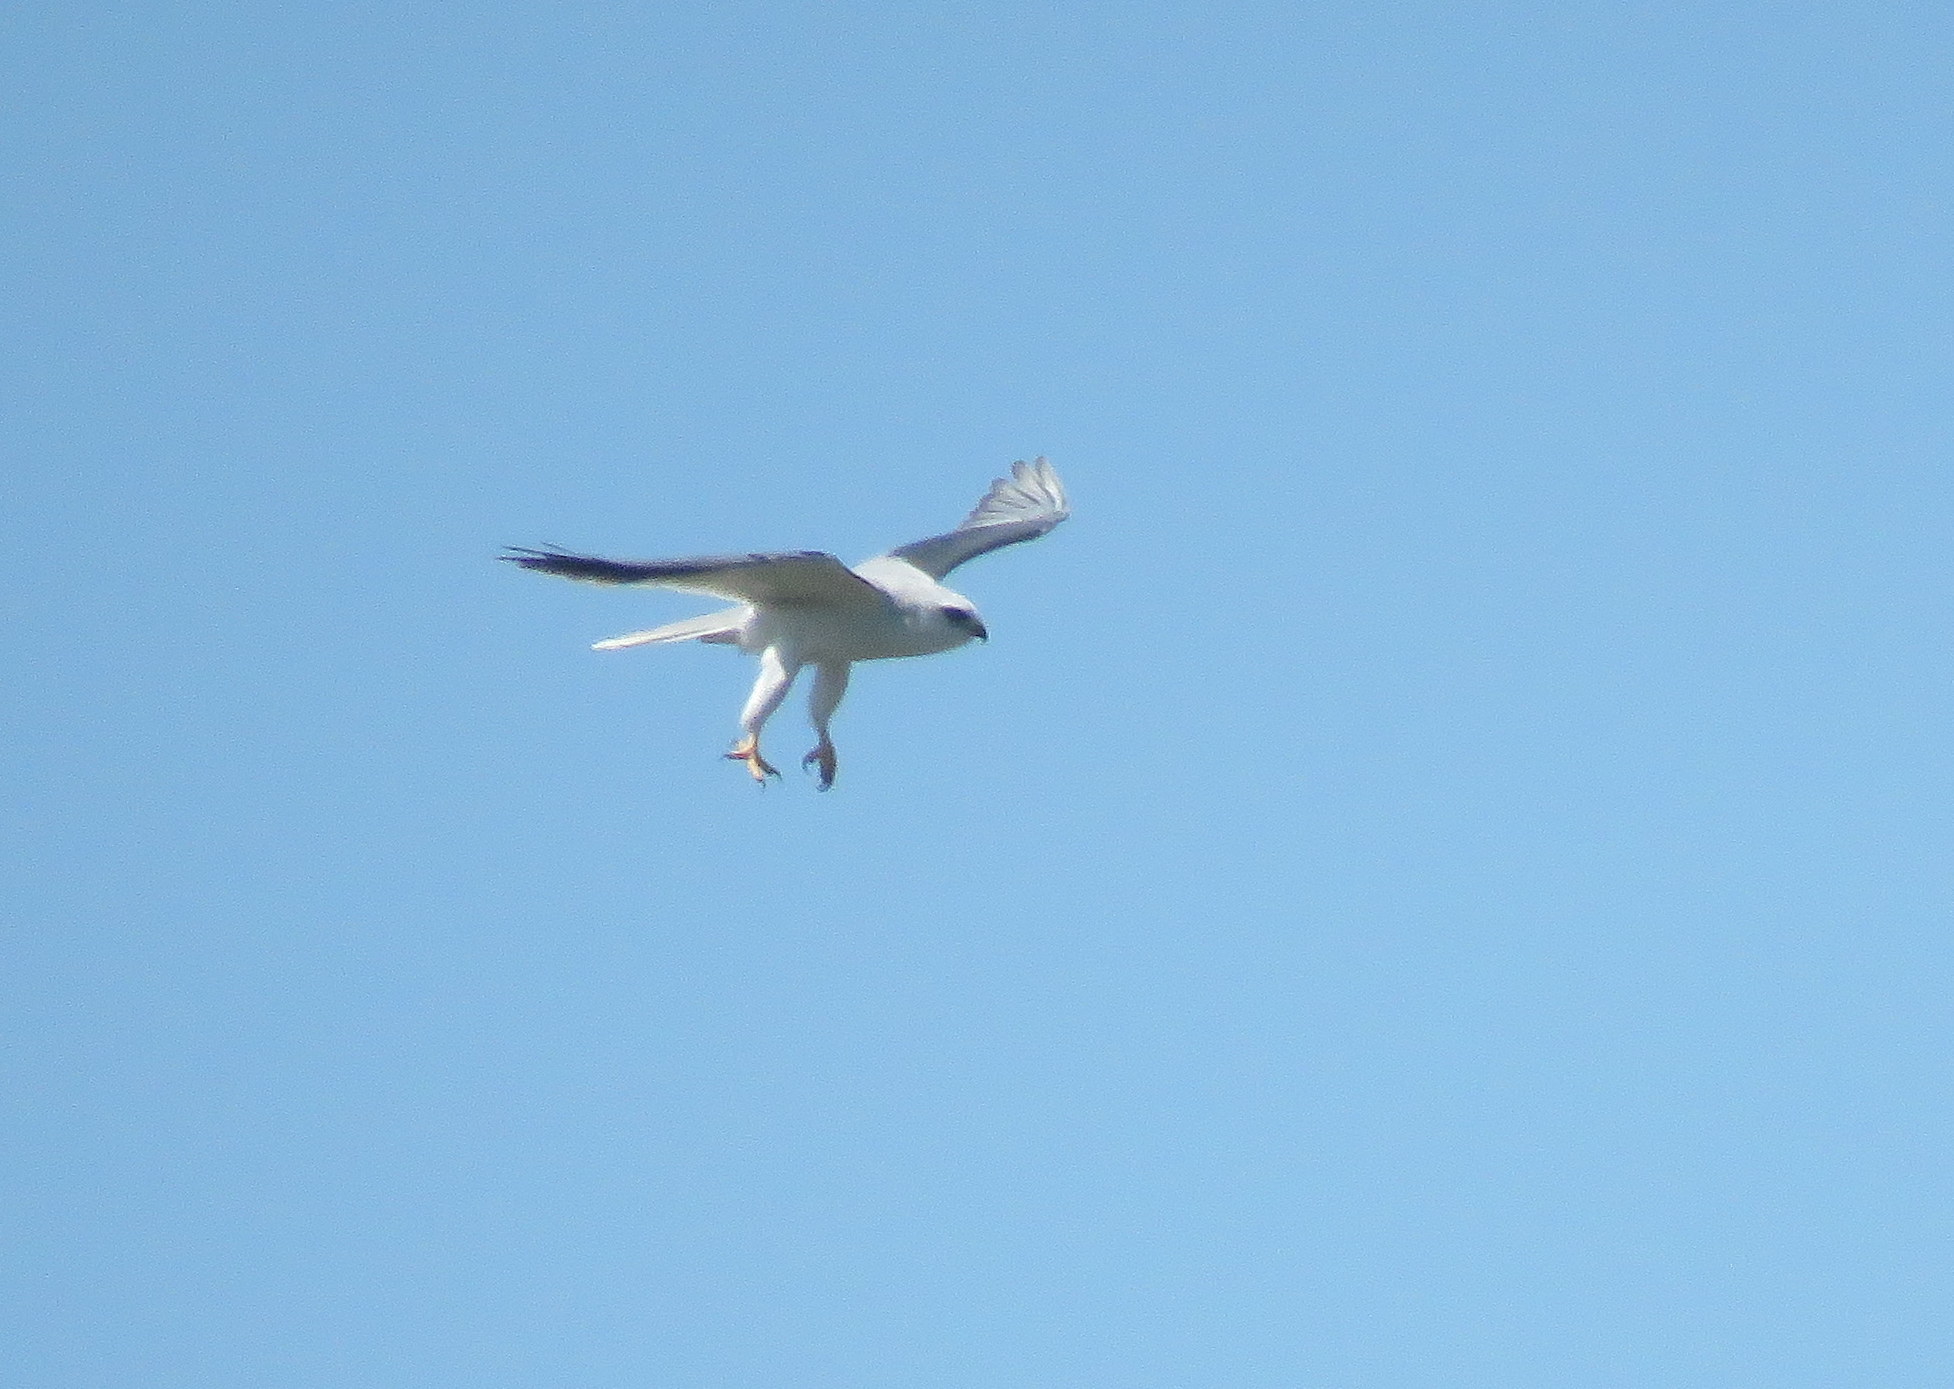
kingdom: Animalia
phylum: Chordata
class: Aves
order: Accipitriformes
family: Accipitridae
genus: Elanus
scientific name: Elanus leucurus
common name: White-tailed kite
